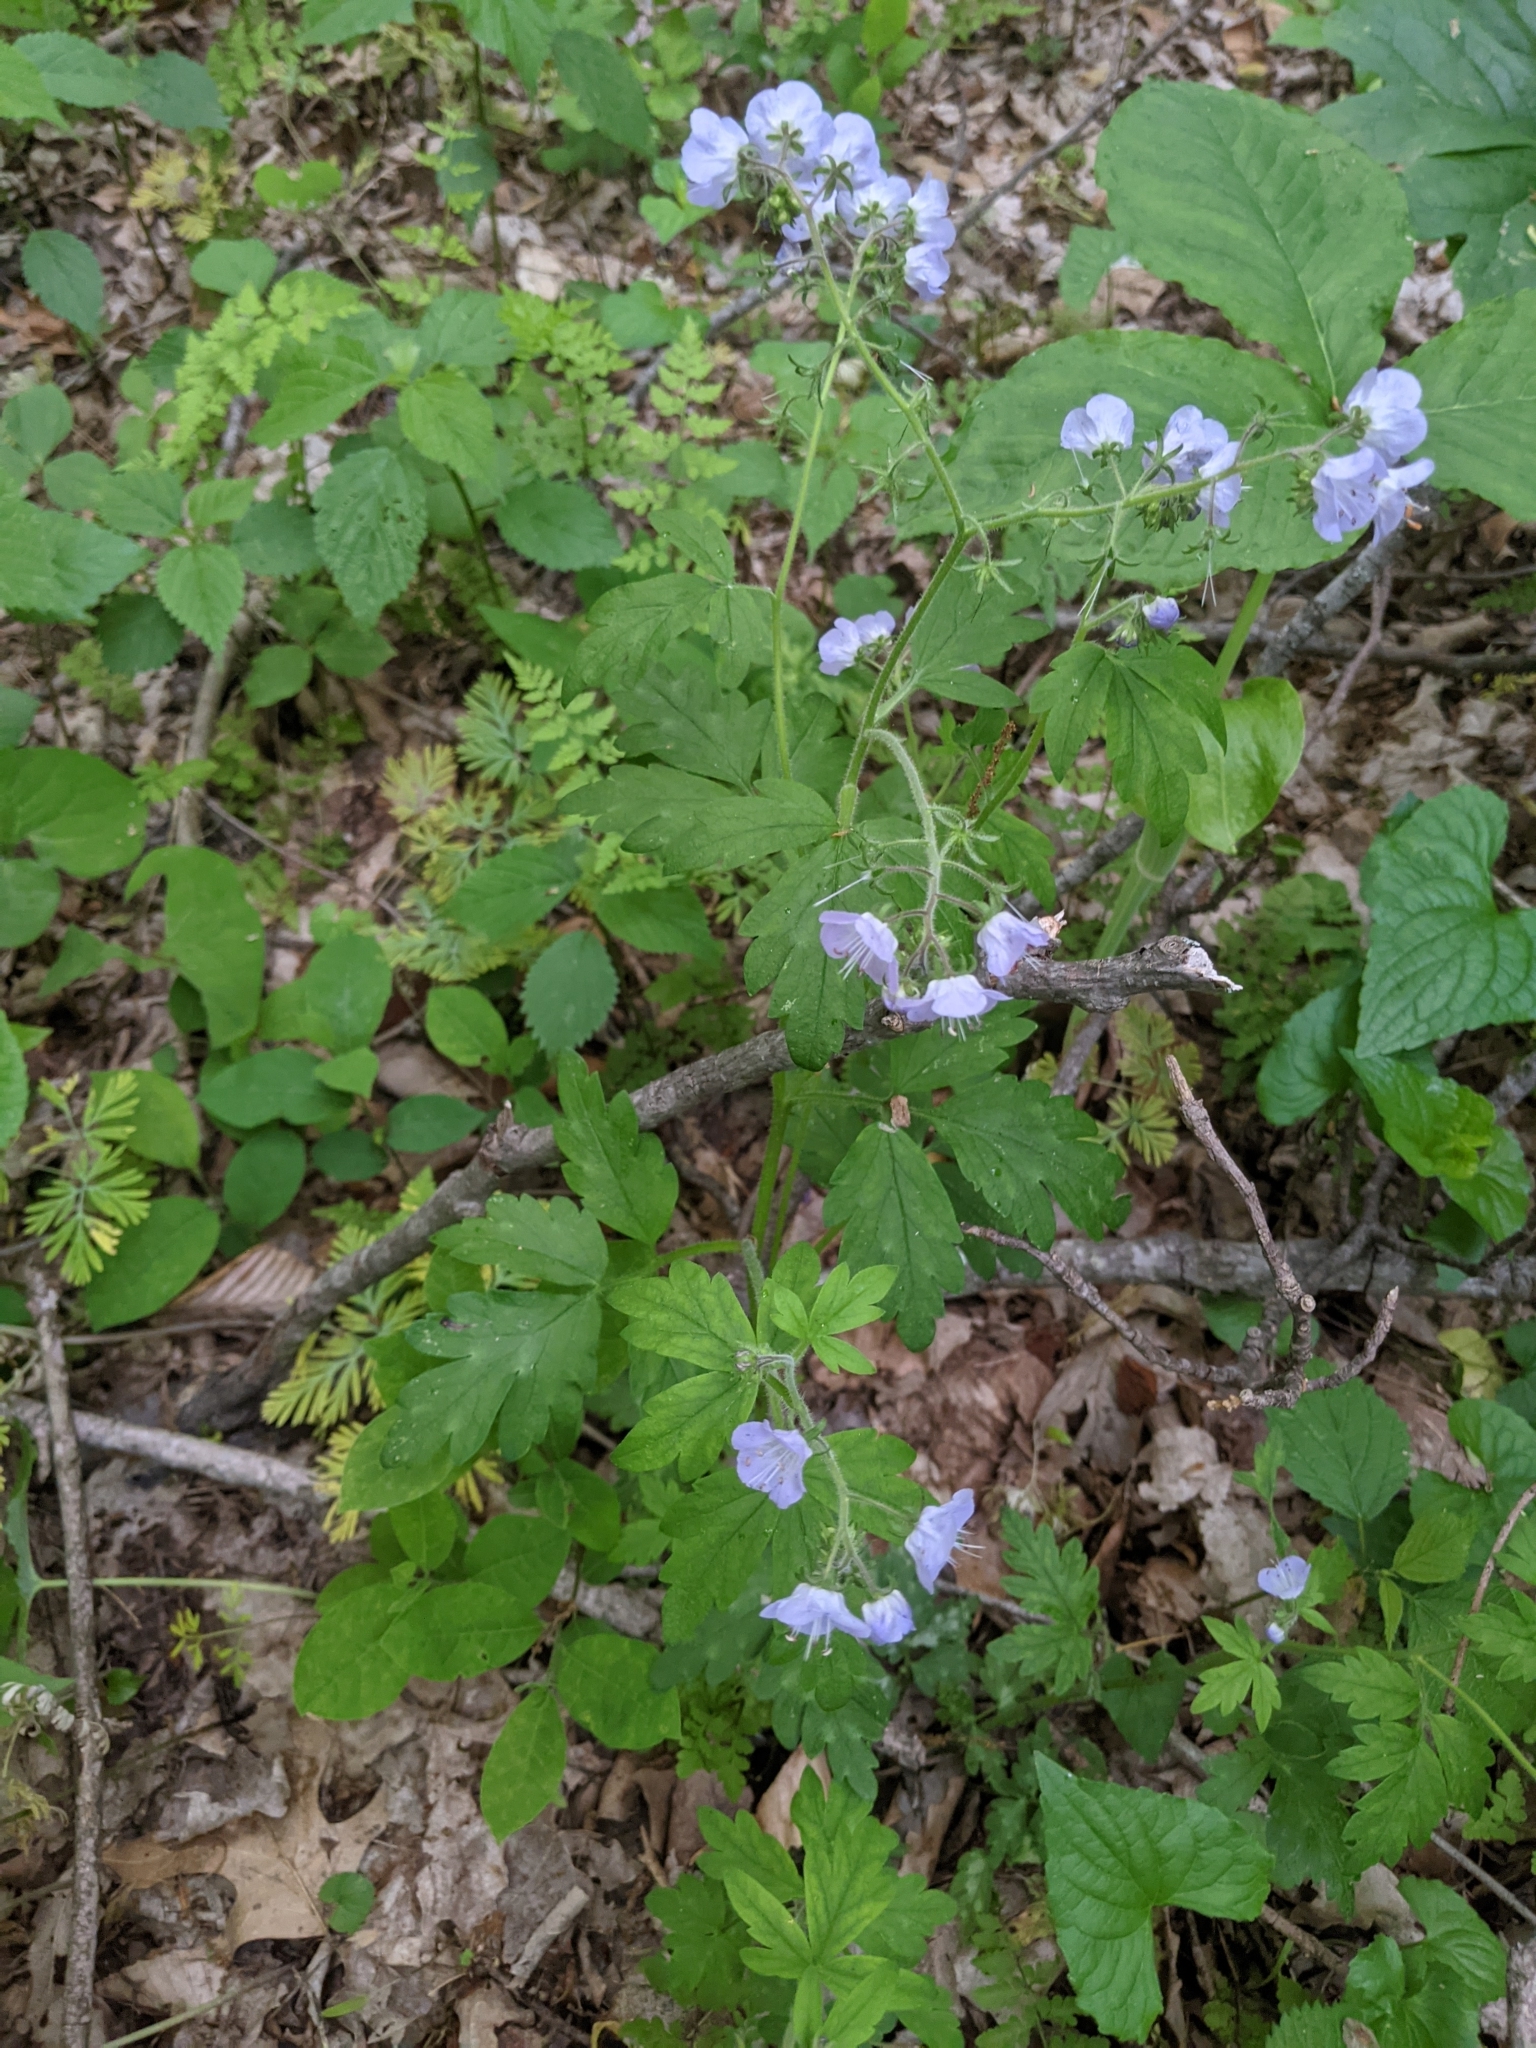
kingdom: Plantae
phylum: Tracheophyta
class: Magnoliopsida
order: Boraginales
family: Hydrophyllaceae
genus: Phacelia
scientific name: Phacelia bipinnatifida
